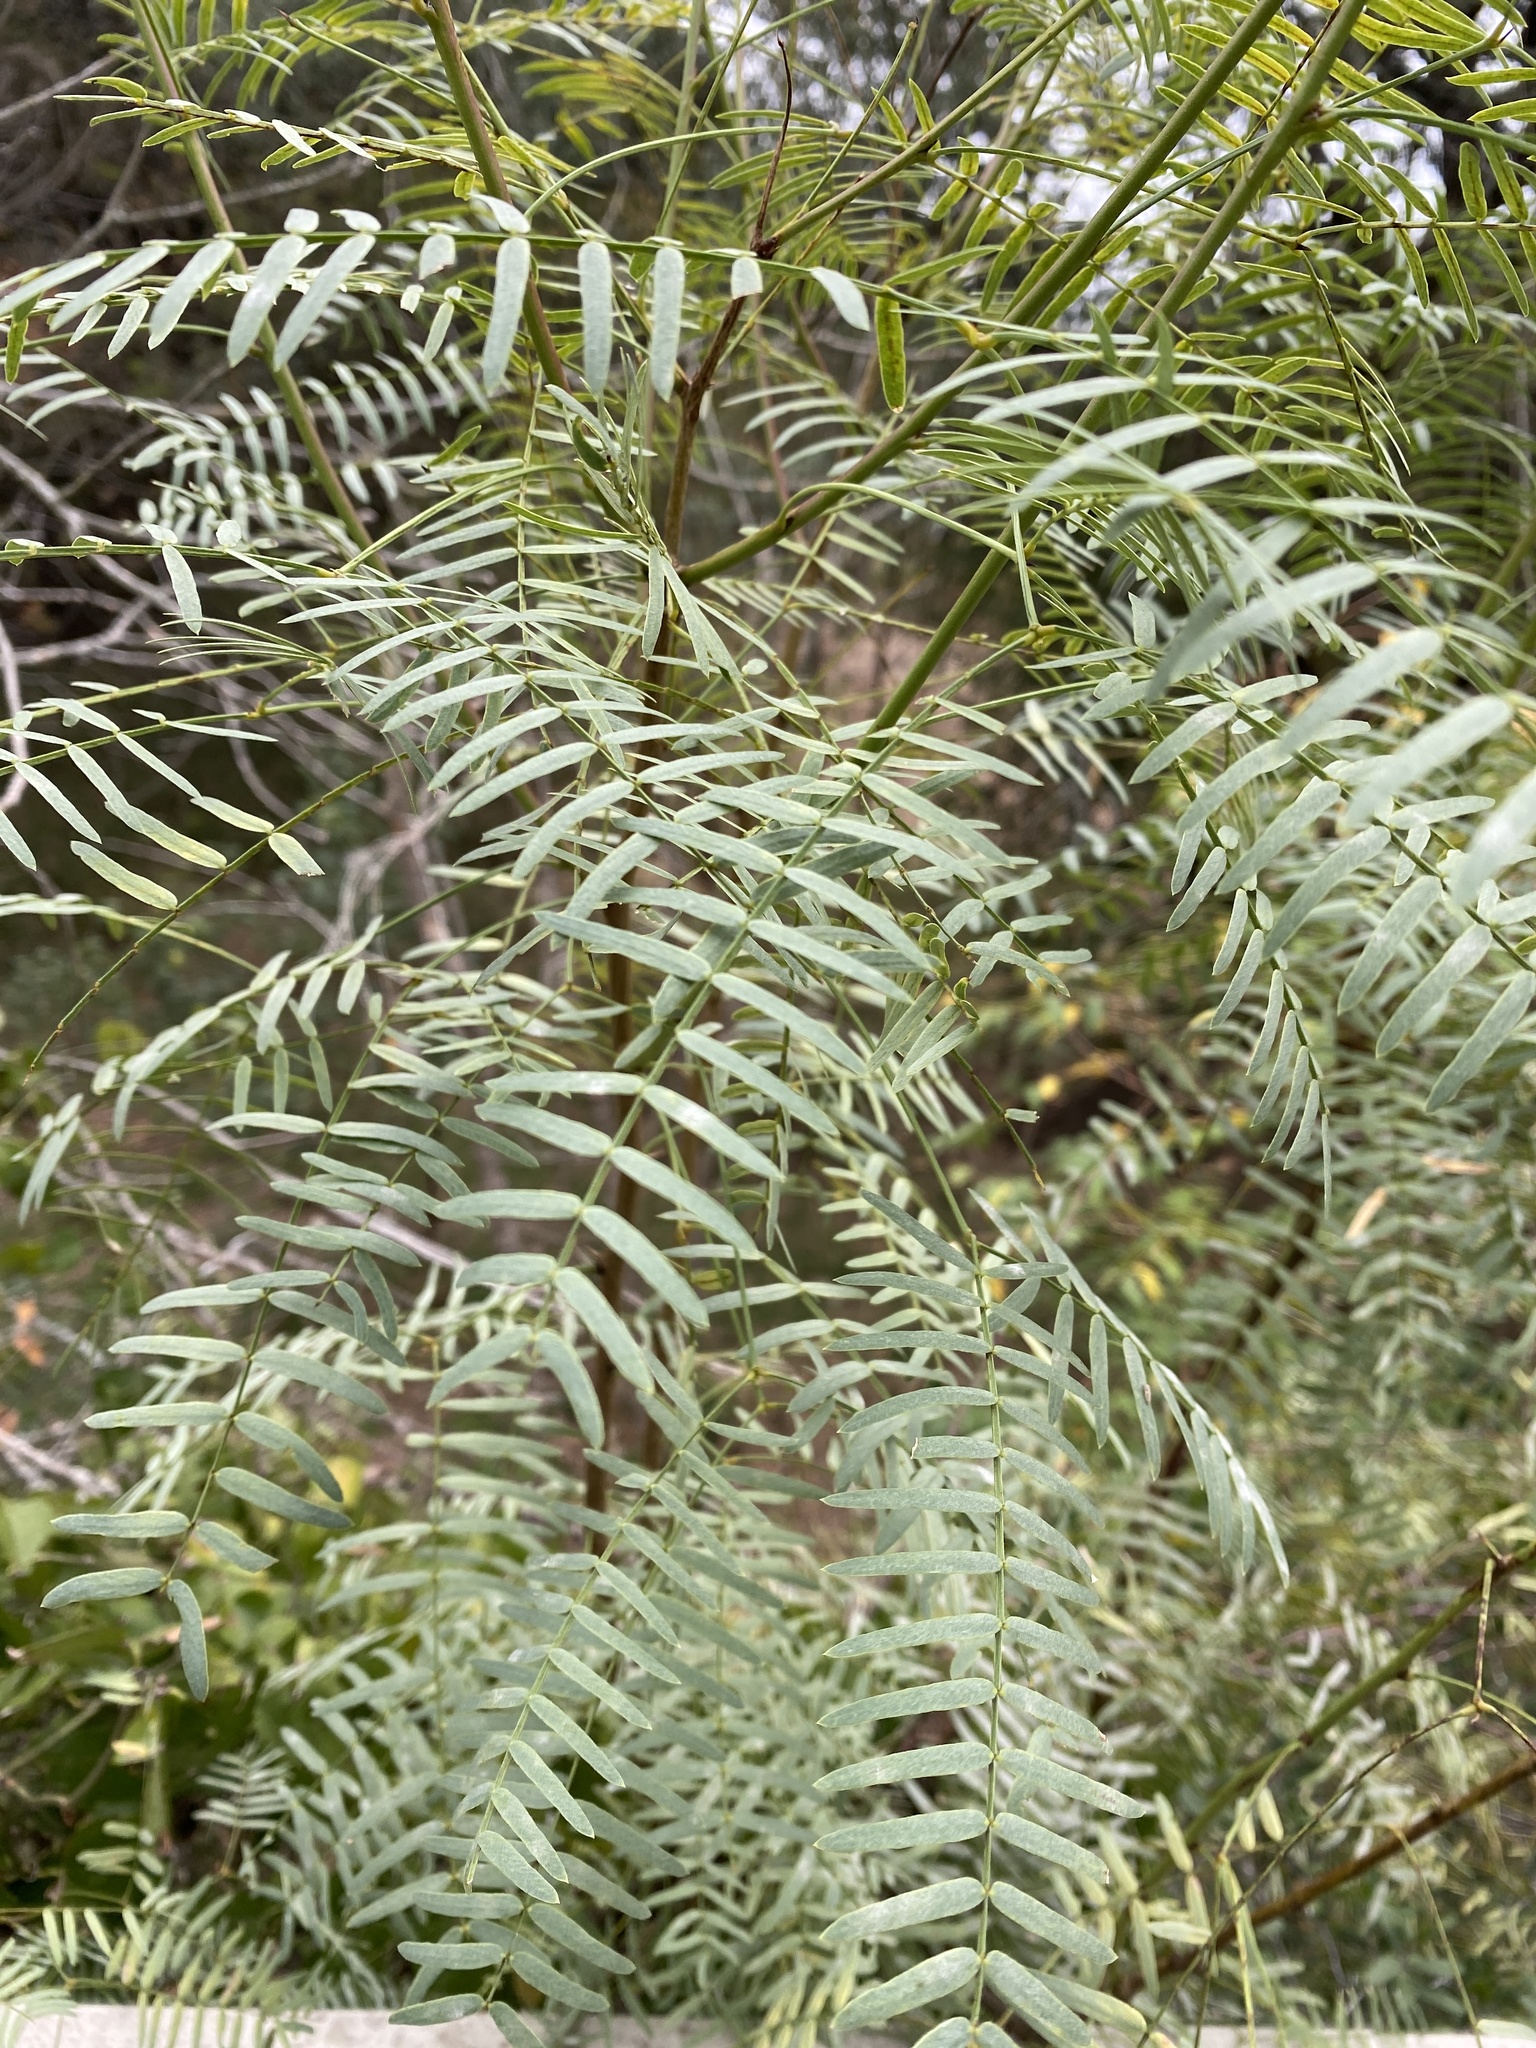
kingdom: Plantae
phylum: Tracheophyta
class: Magnoliopsida
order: Fabales
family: Fabaceae
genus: Prosopis
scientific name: Prosopis glandulosa
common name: Honey mesquite
